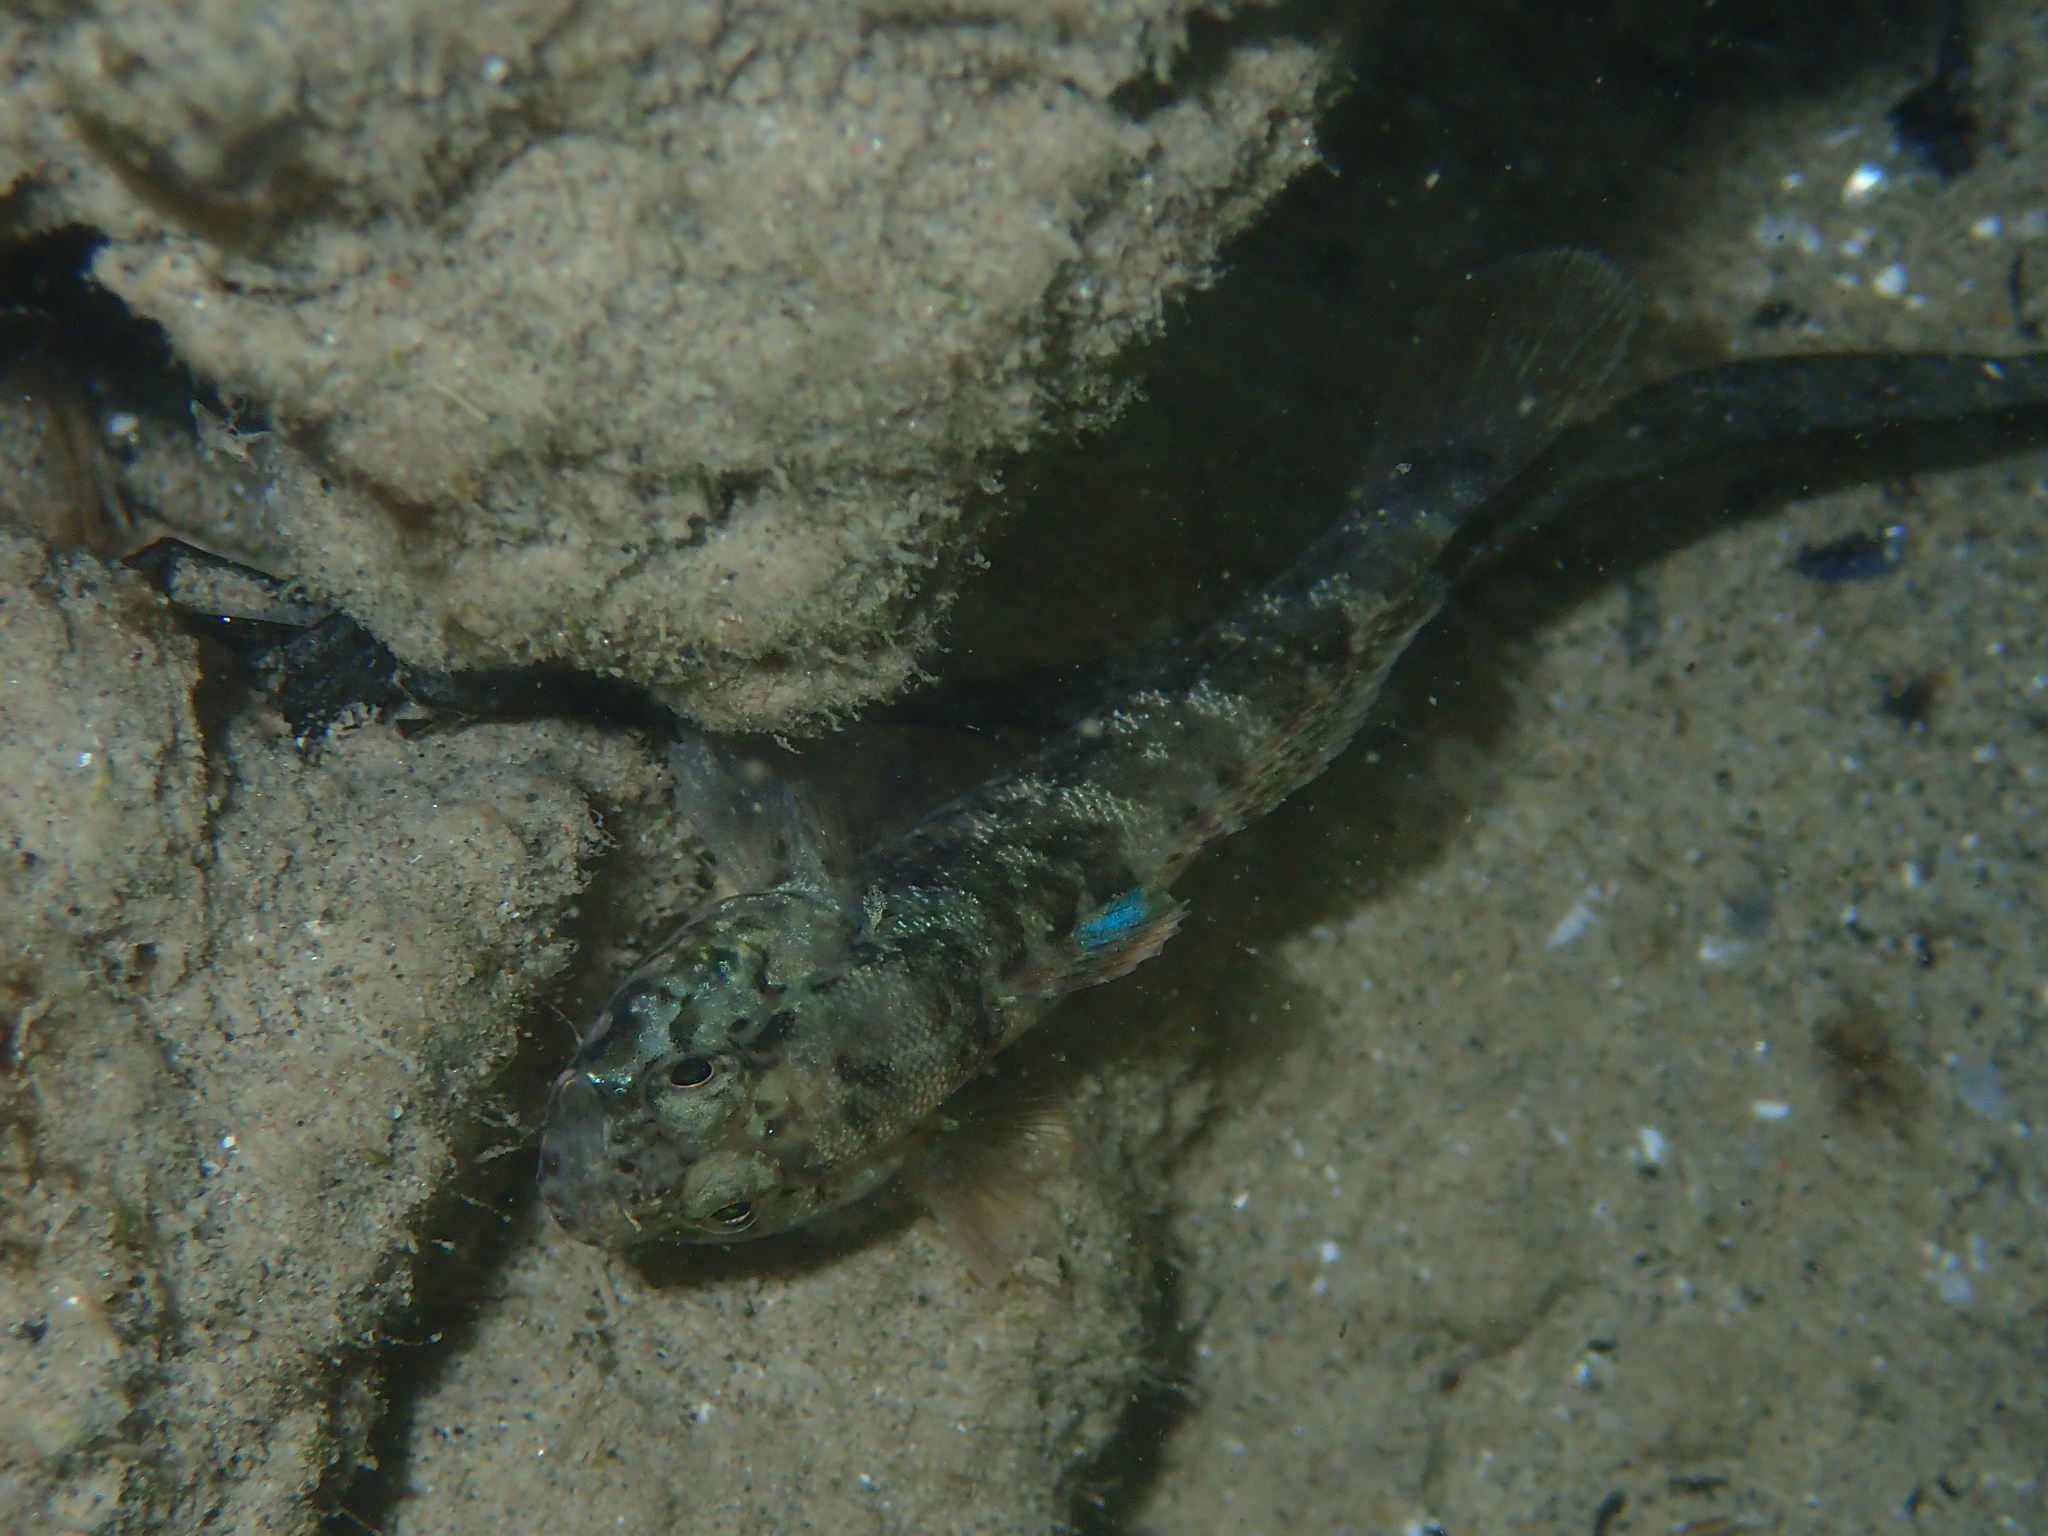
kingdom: Animalia
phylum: Chordata
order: Perciformes
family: Gobiidae
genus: Gobius
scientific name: Gobius paganellus
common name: Rock goby
